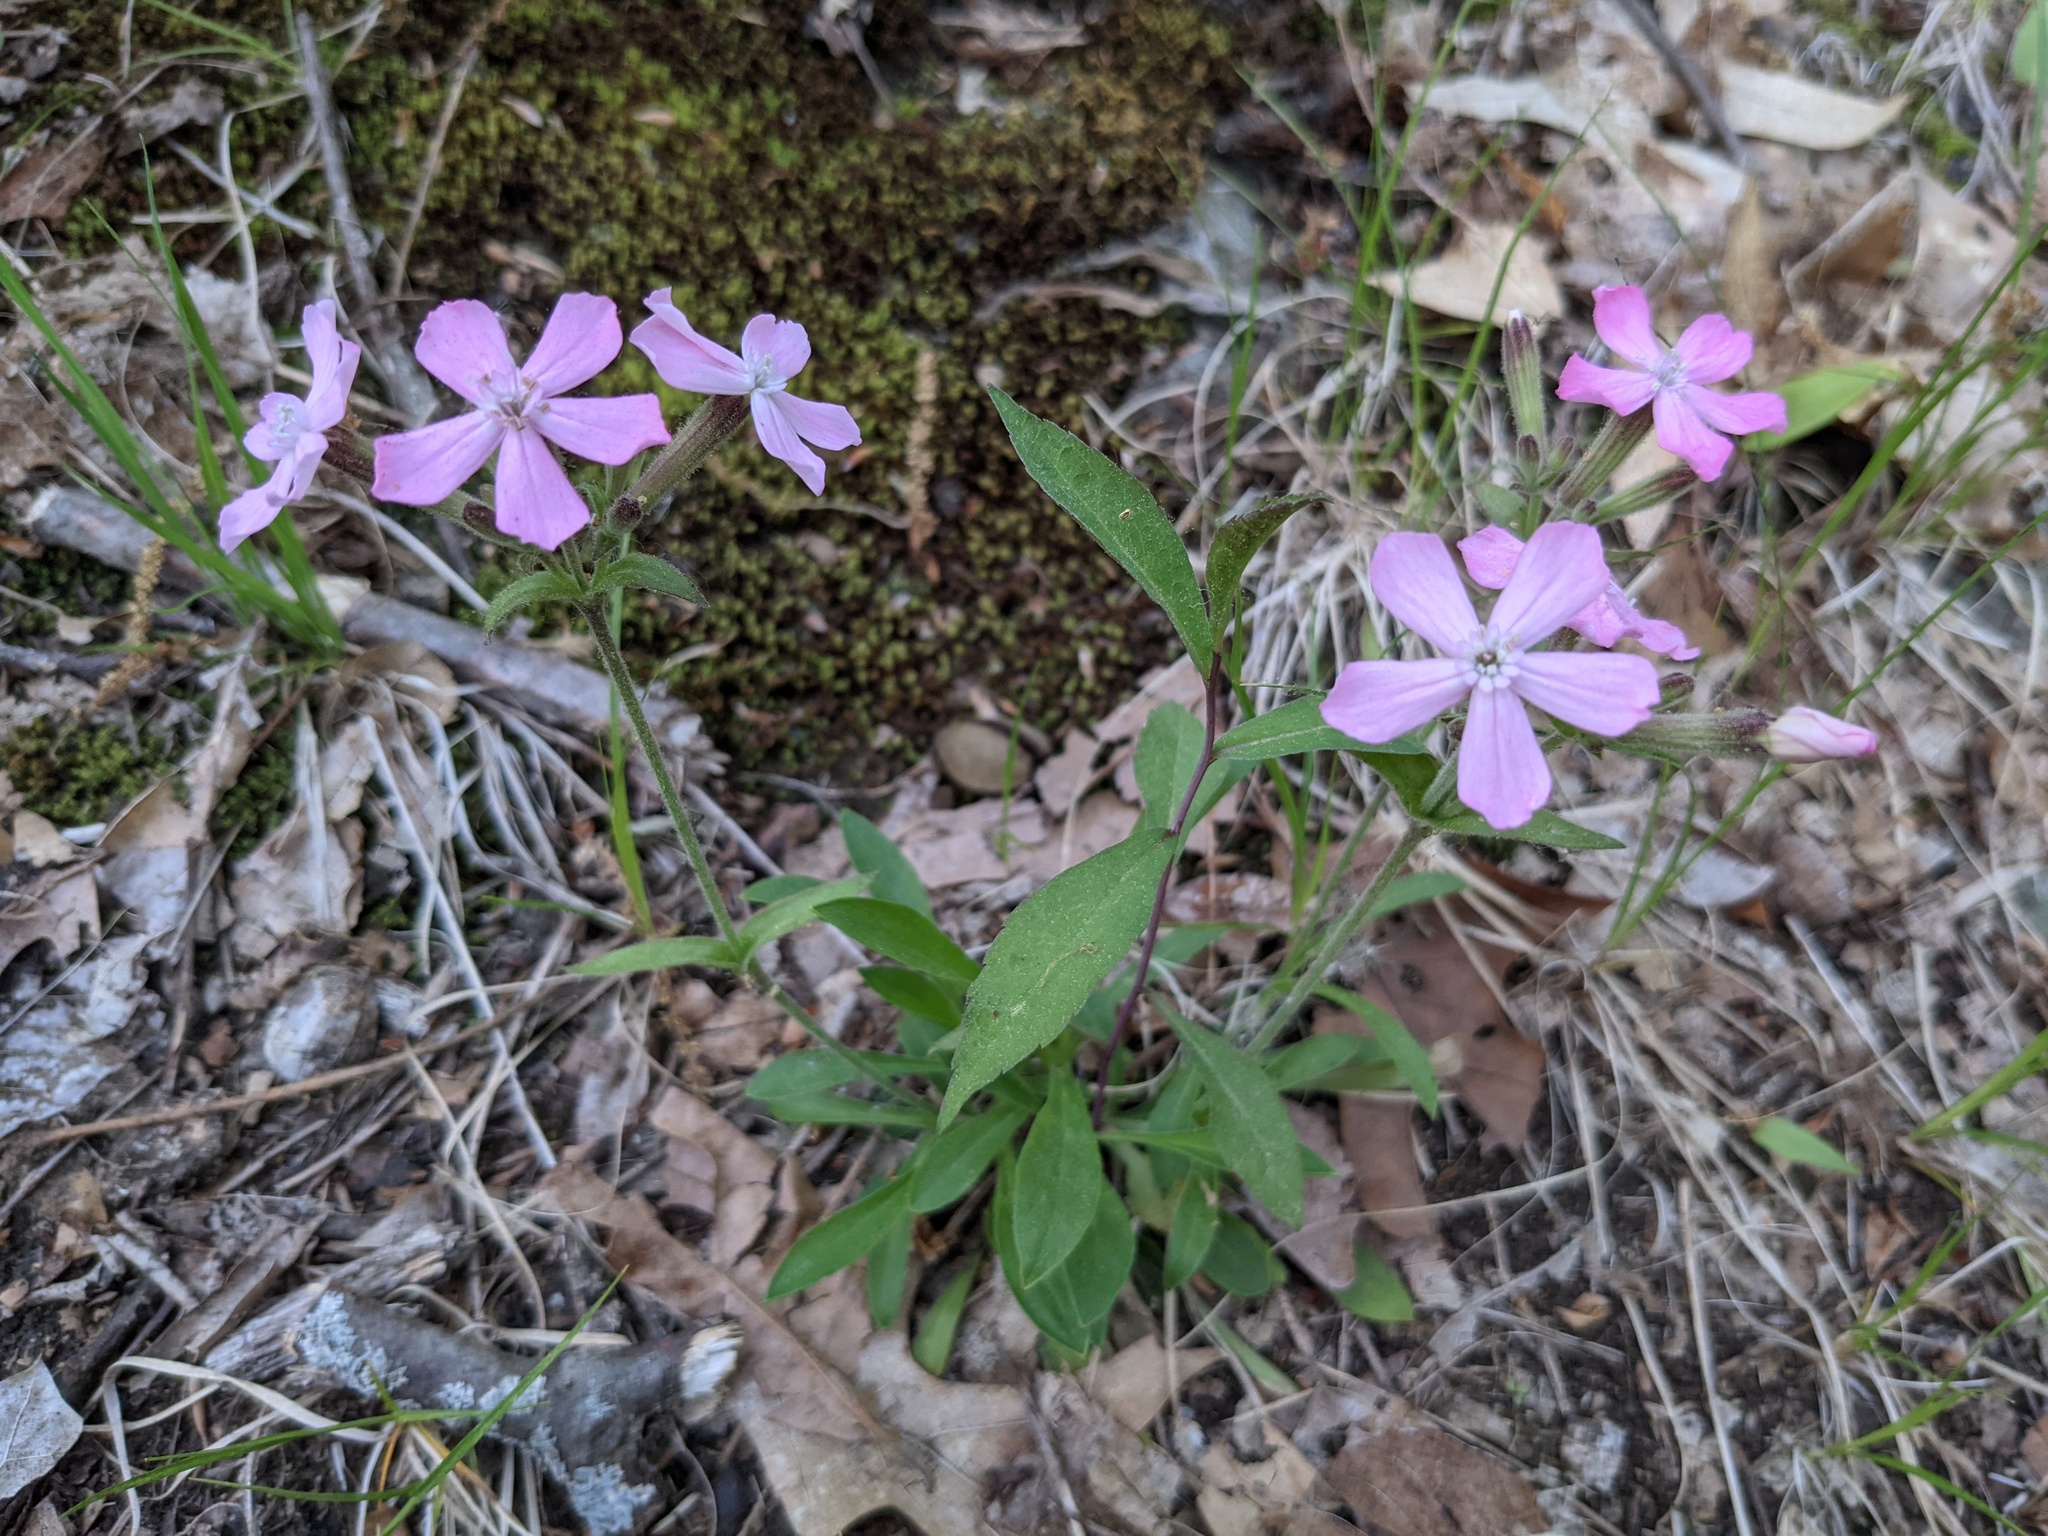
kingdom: Plantae
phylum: Tracheophyta
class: Magnoliopsida
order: Caryophyllales
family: Caryophyllaceae
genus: Silene
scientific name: Silene caroliniana
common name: Sticky catchfly
